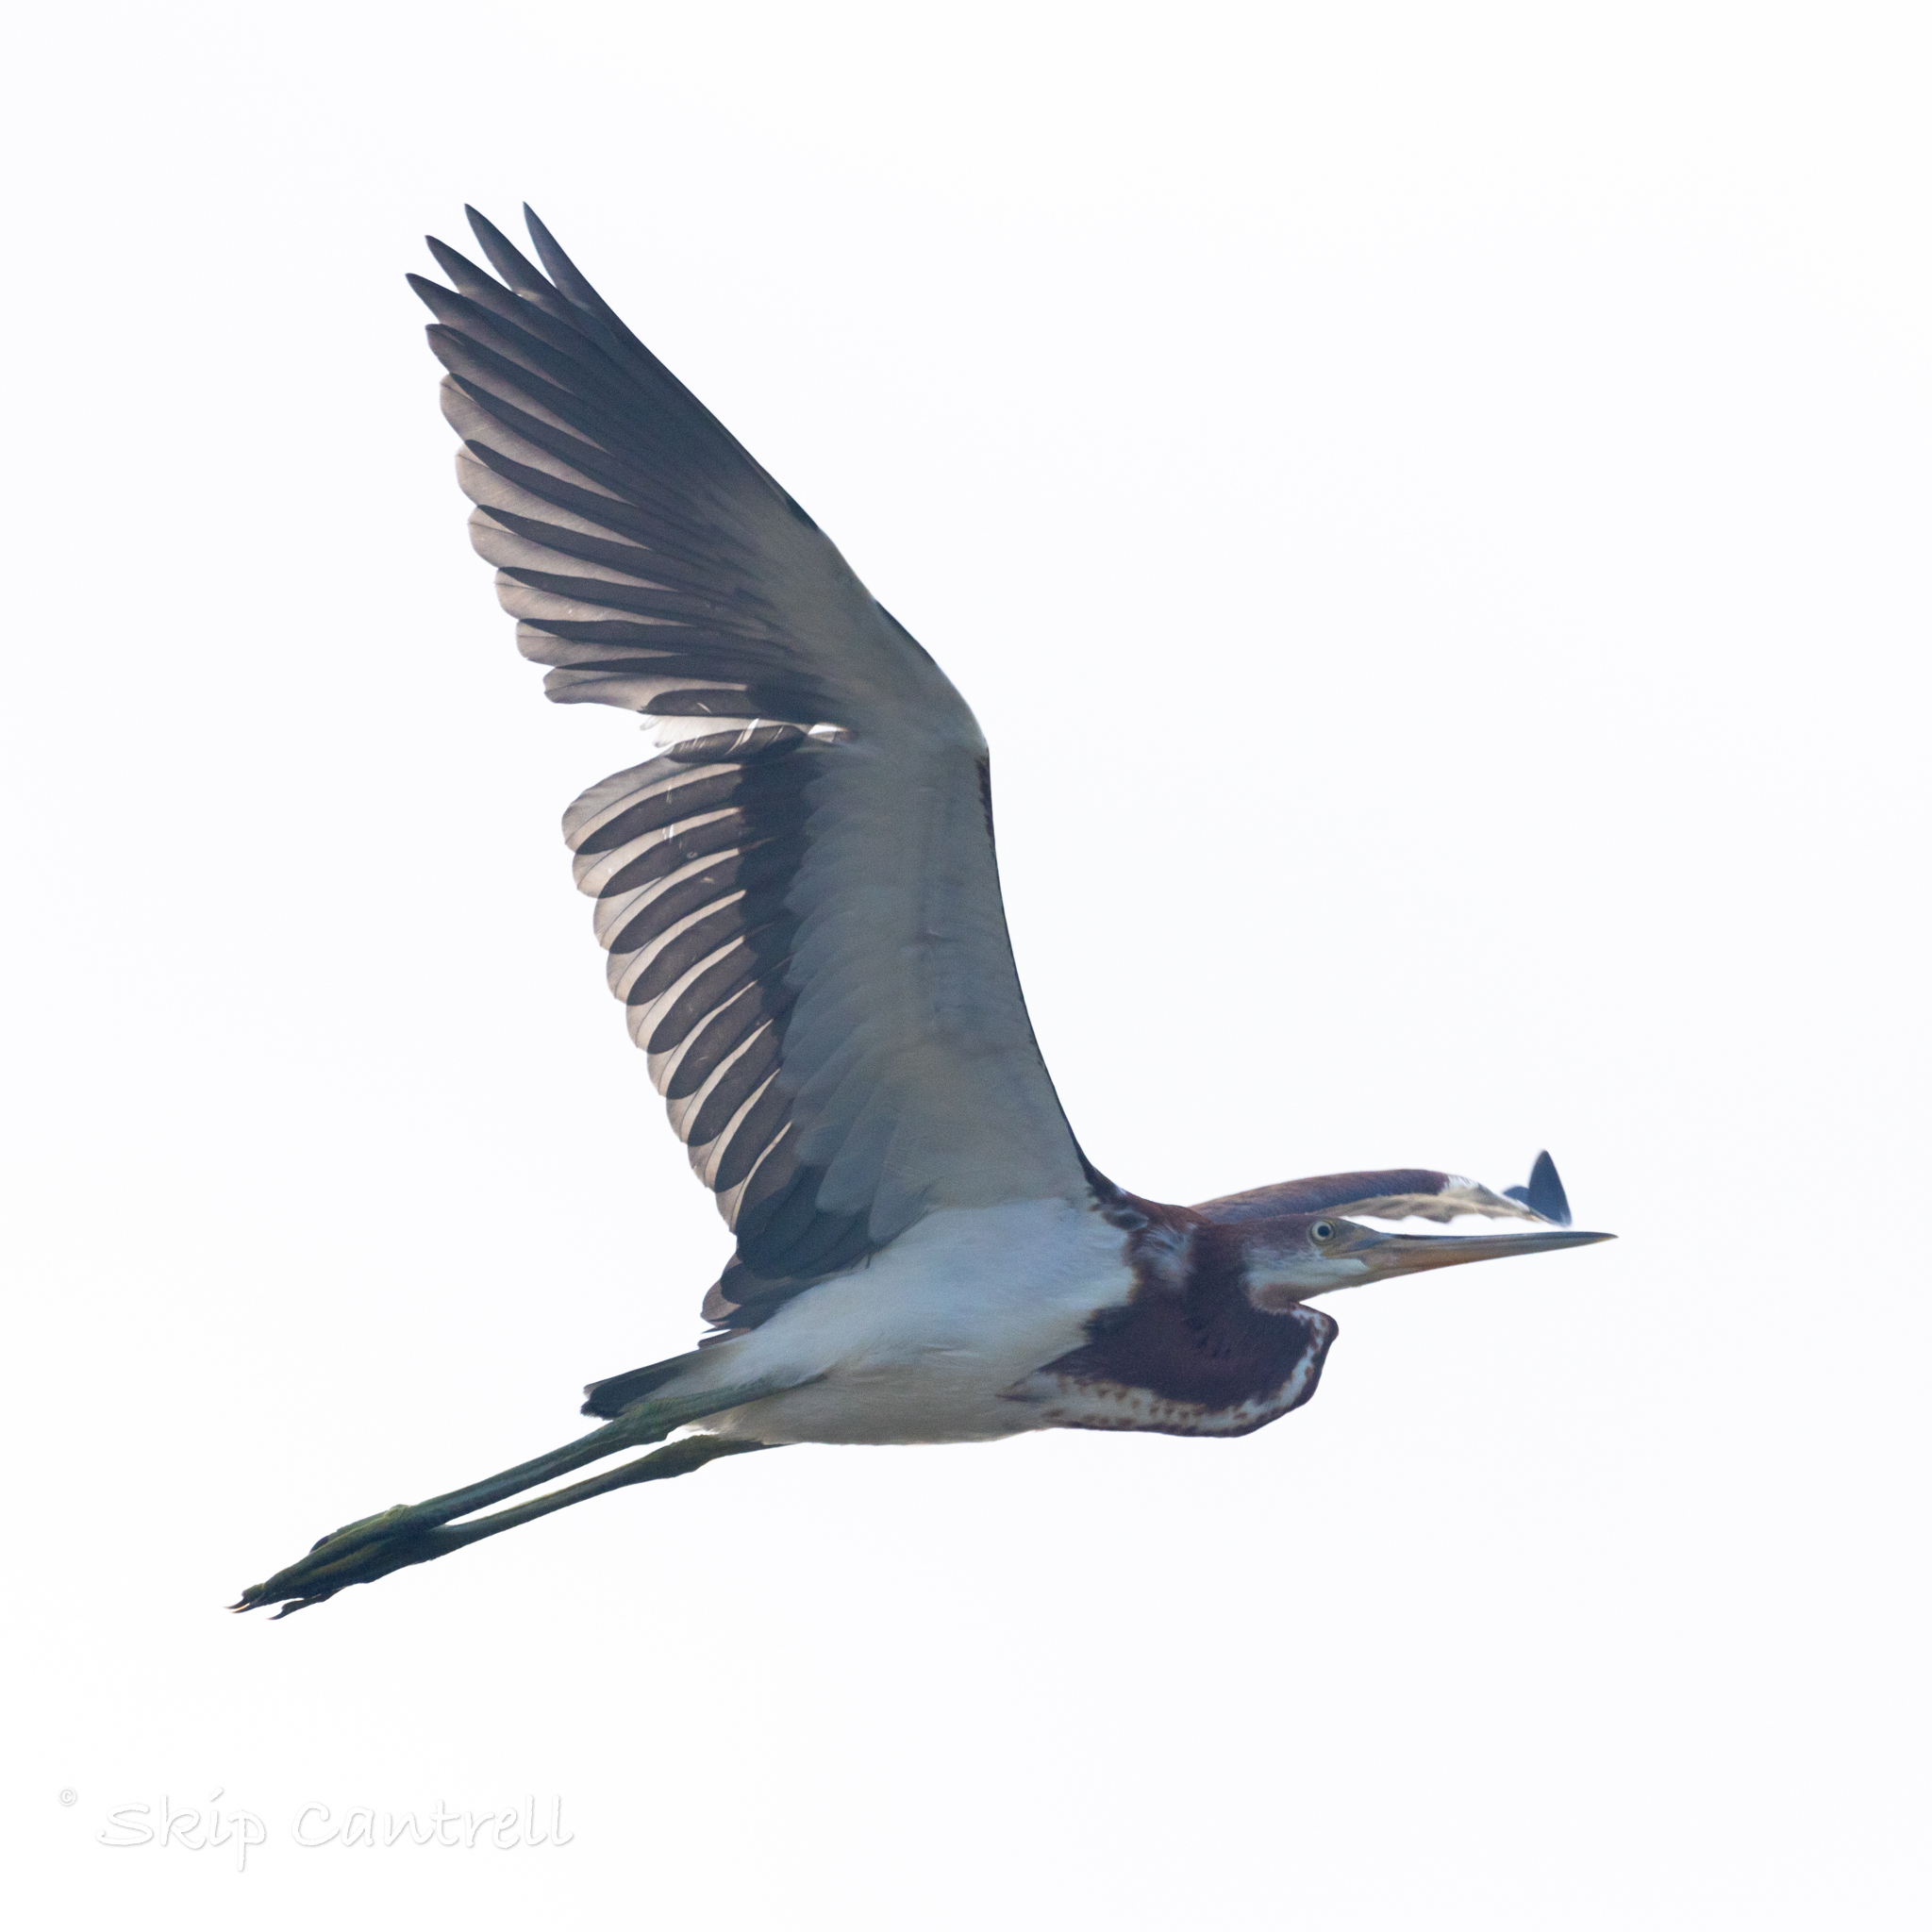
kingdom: Animalia
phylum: Chordata
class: Aves
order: Pelecaniformes
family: Ardeidae
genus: Egretta
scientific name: Egretta tricolor
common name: Tricolored heron
